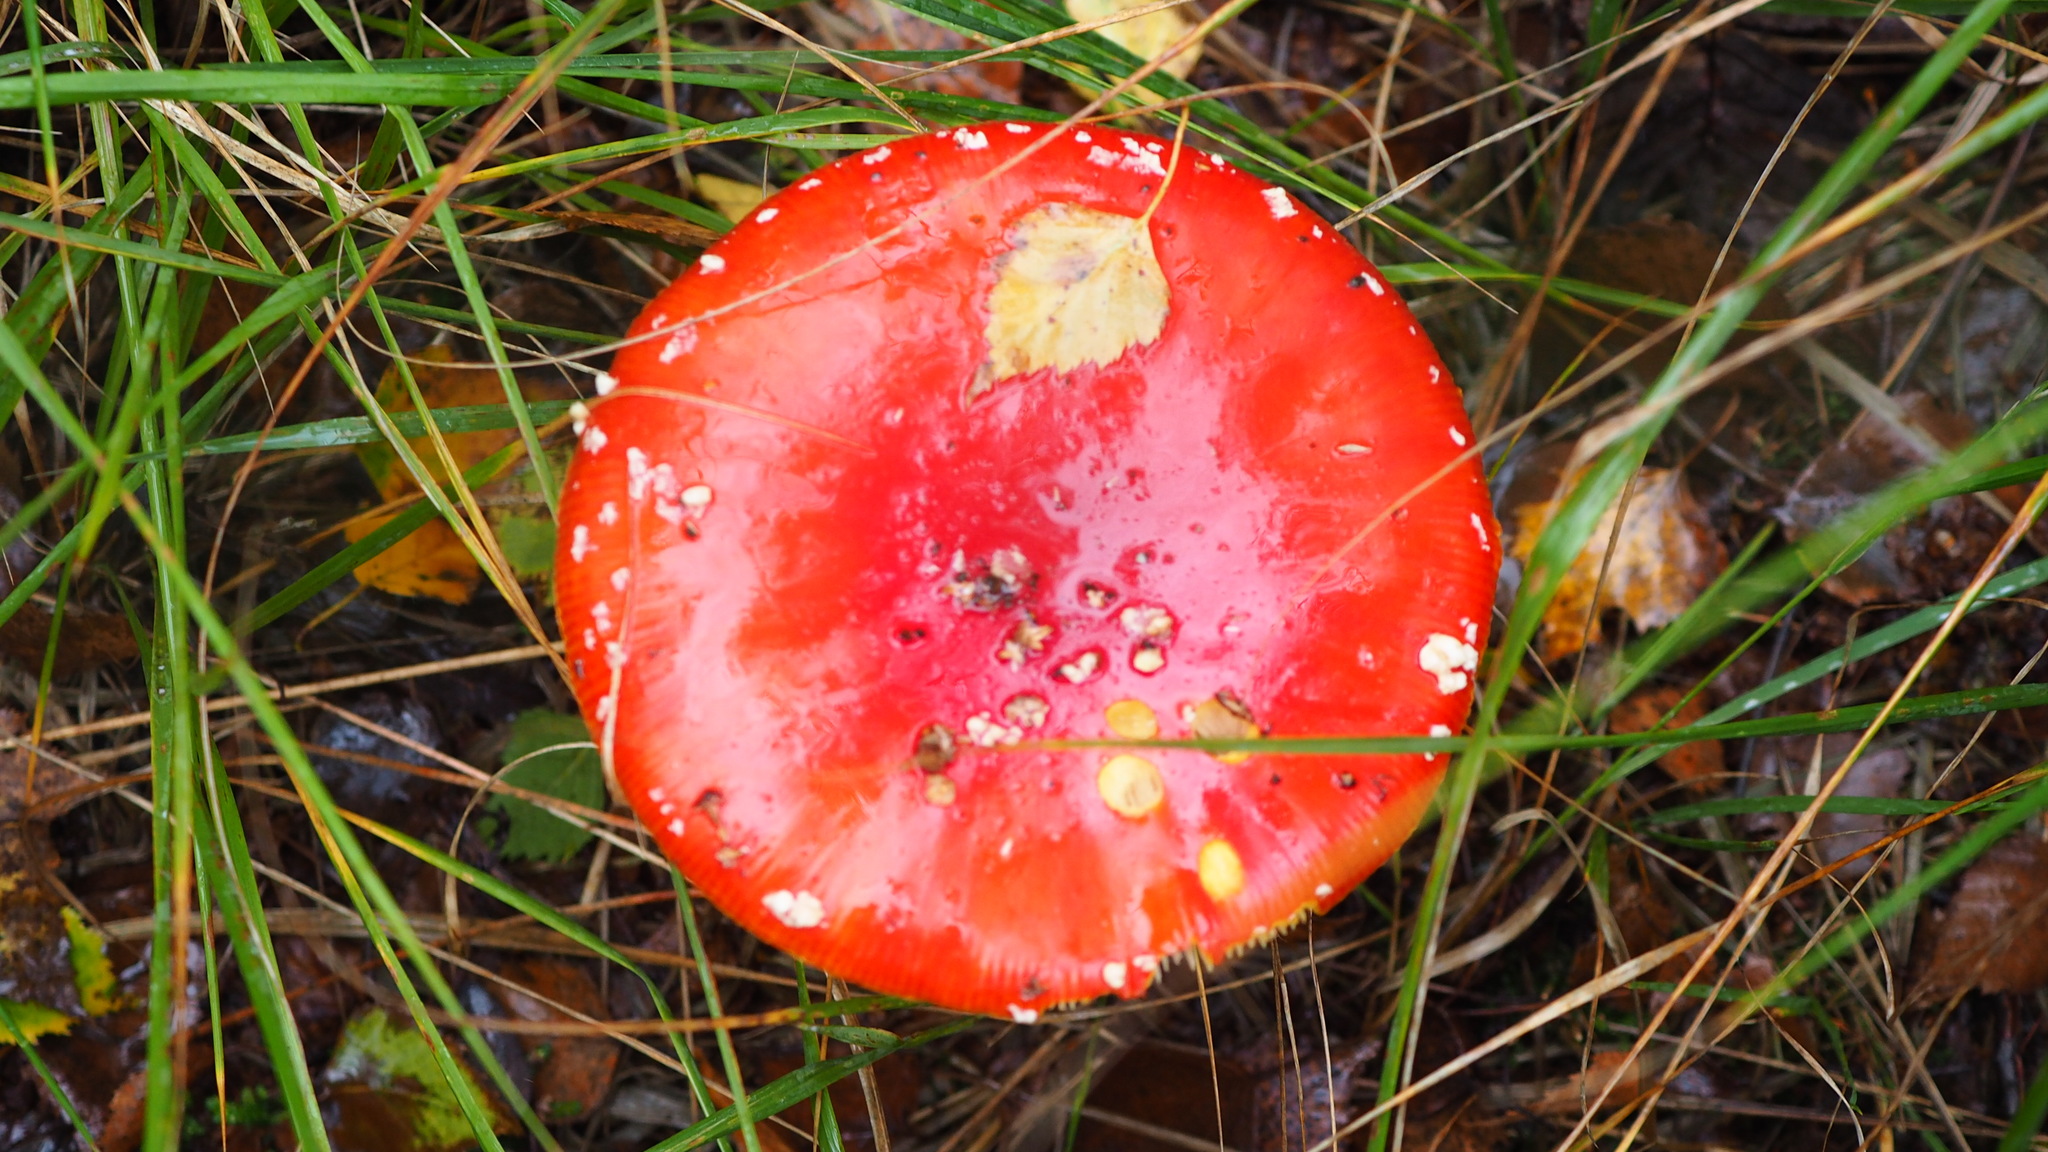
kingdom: Fungi
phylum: Basidiomycota
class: Agaricomycetes
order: Agaricales
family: Amanitaceae
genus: Amanita
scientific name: Amanita muscaria
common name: Fly agaric
